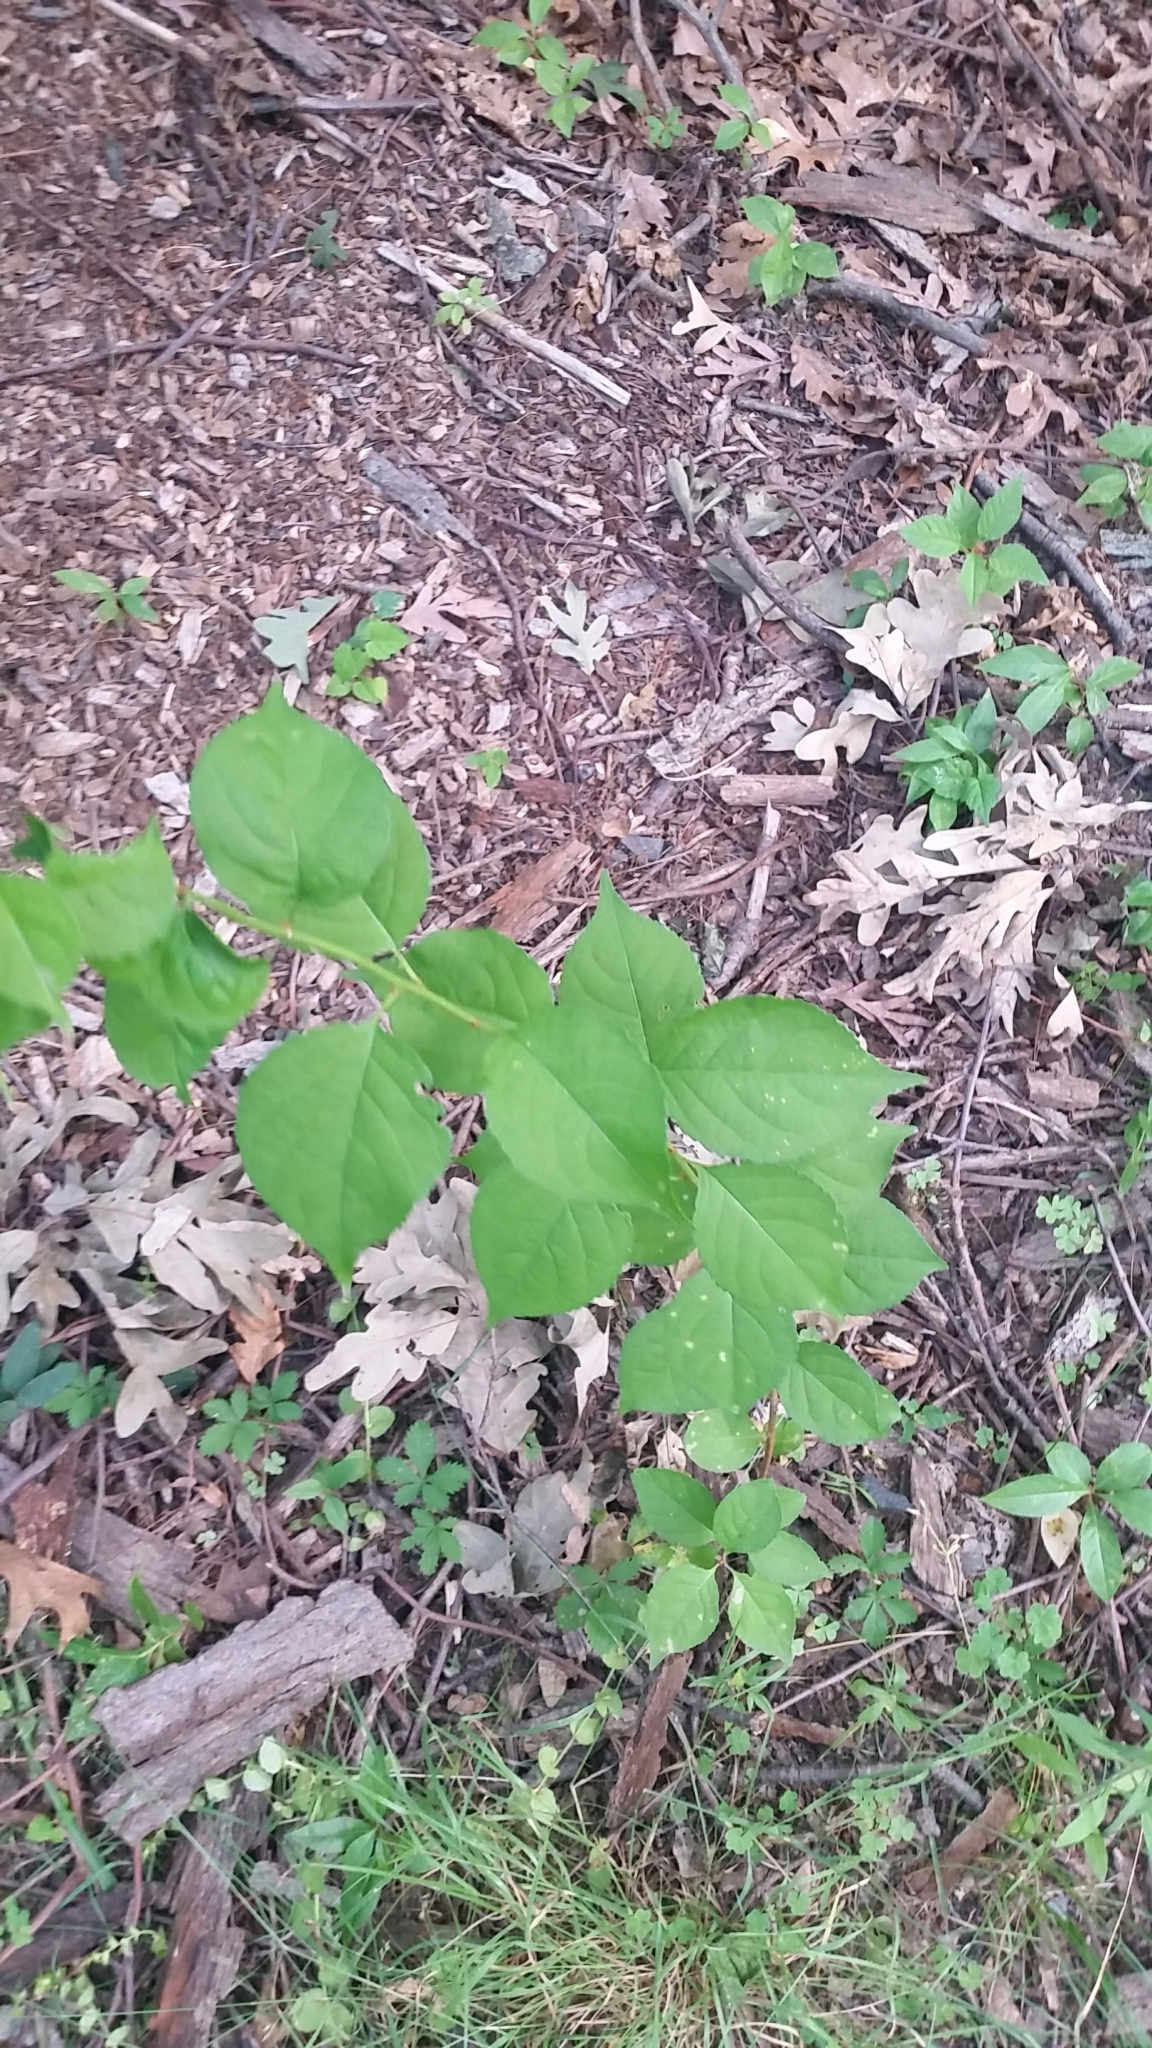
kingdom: Plantae
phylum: Tracheophyta
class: Magnoliopsida
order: Celastrales
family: Celastraceae
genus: Celastrus
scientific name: Celastrus orbiculatus
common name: Oriental bittersweet
